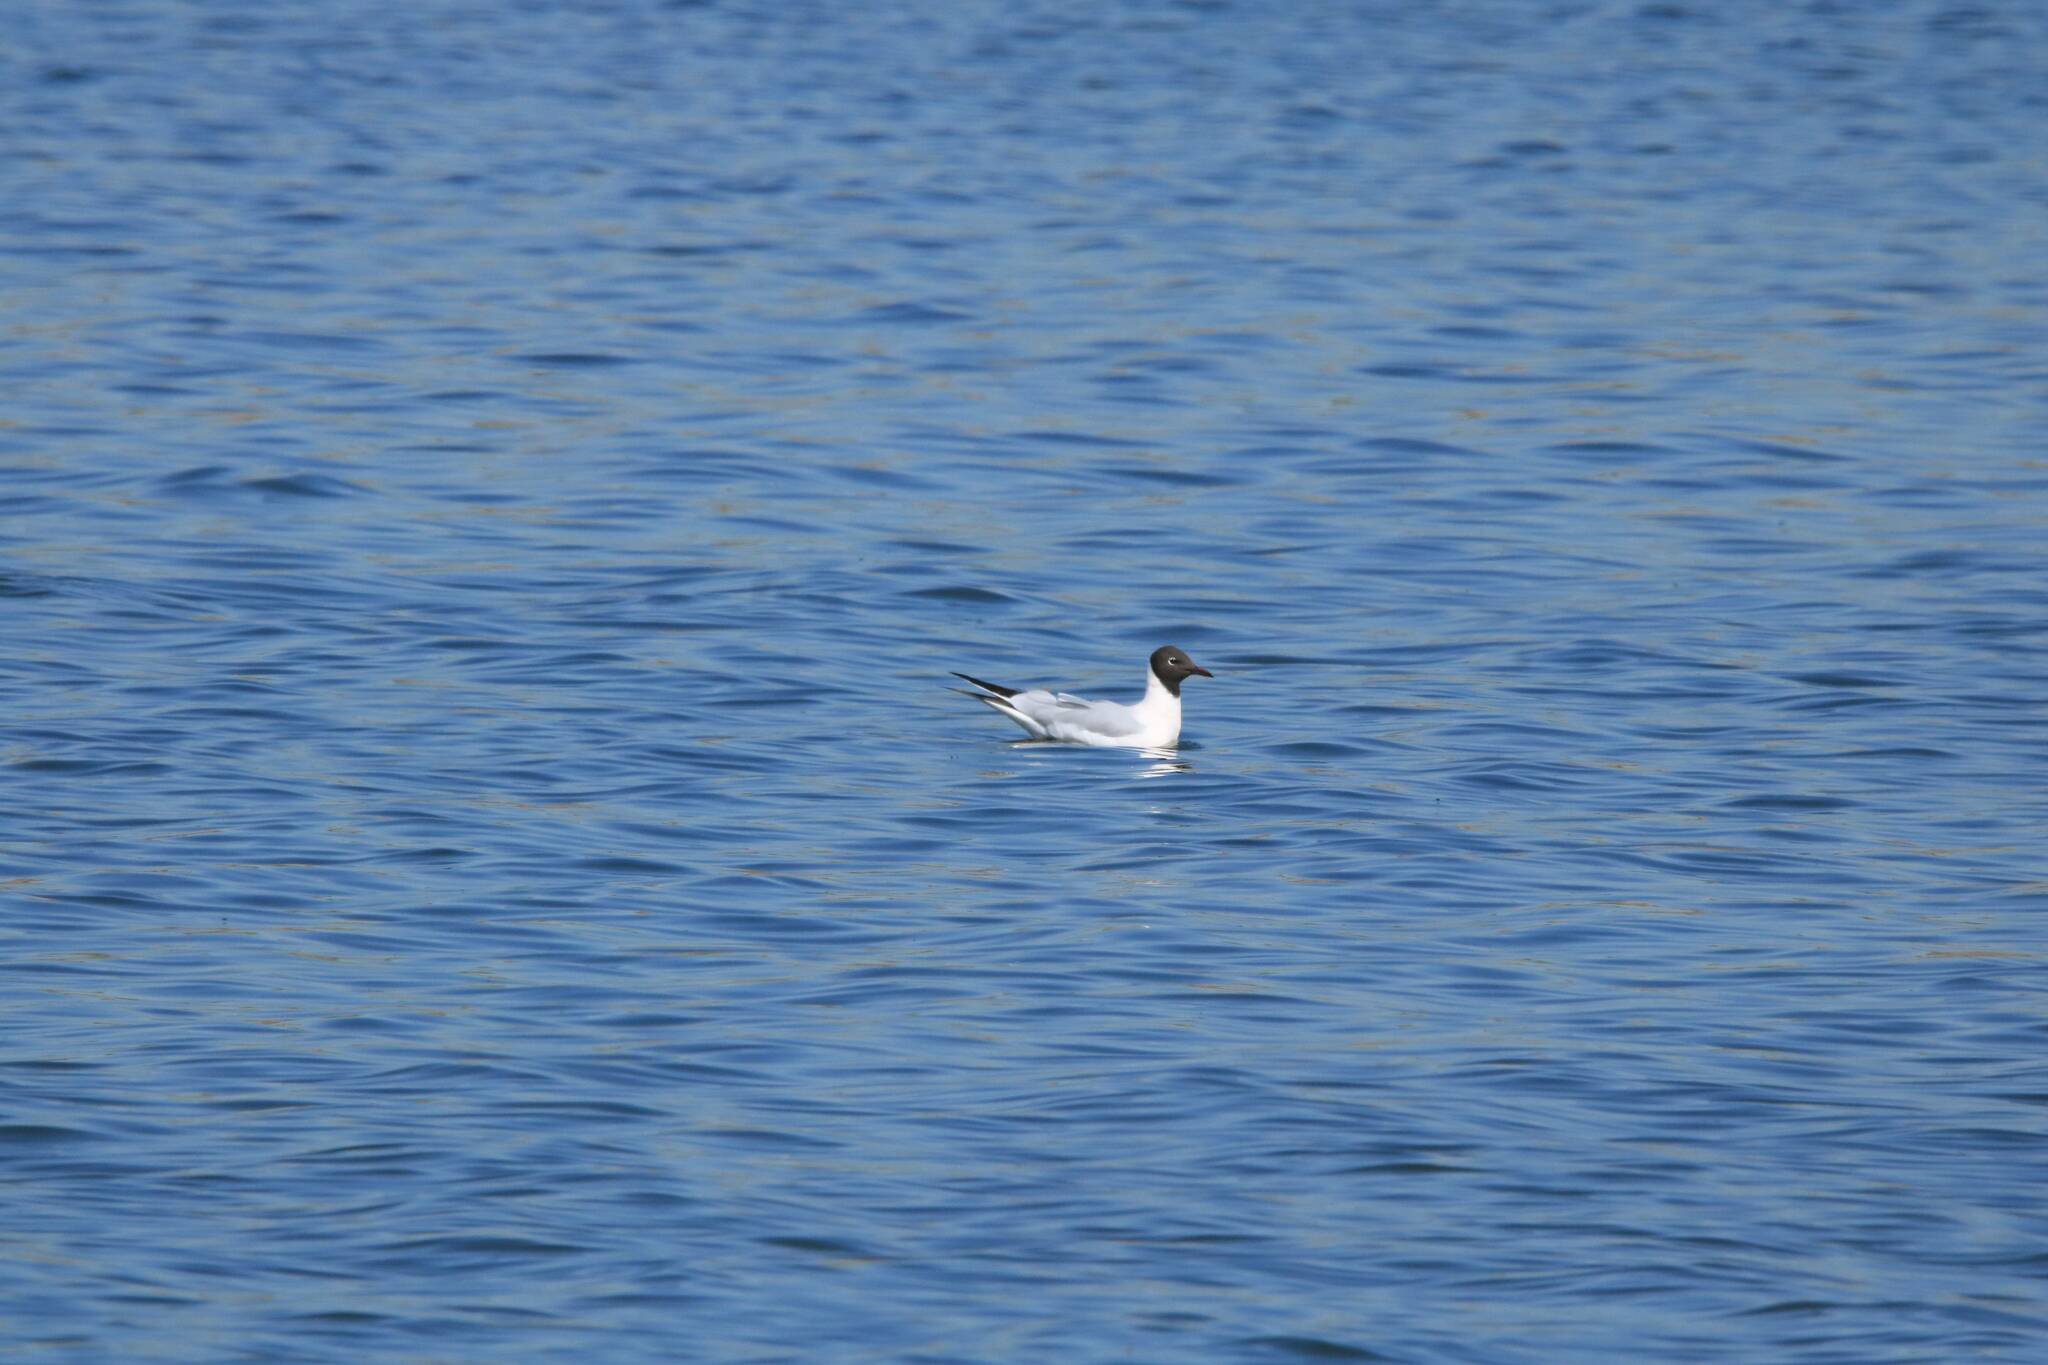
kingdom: Animalia
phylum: Chordata
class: Aves
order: Charadriiformes
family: Laridae
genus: Chroicocephalus
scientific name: Chroicocephalus ridibundus
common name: Black-headed gull
